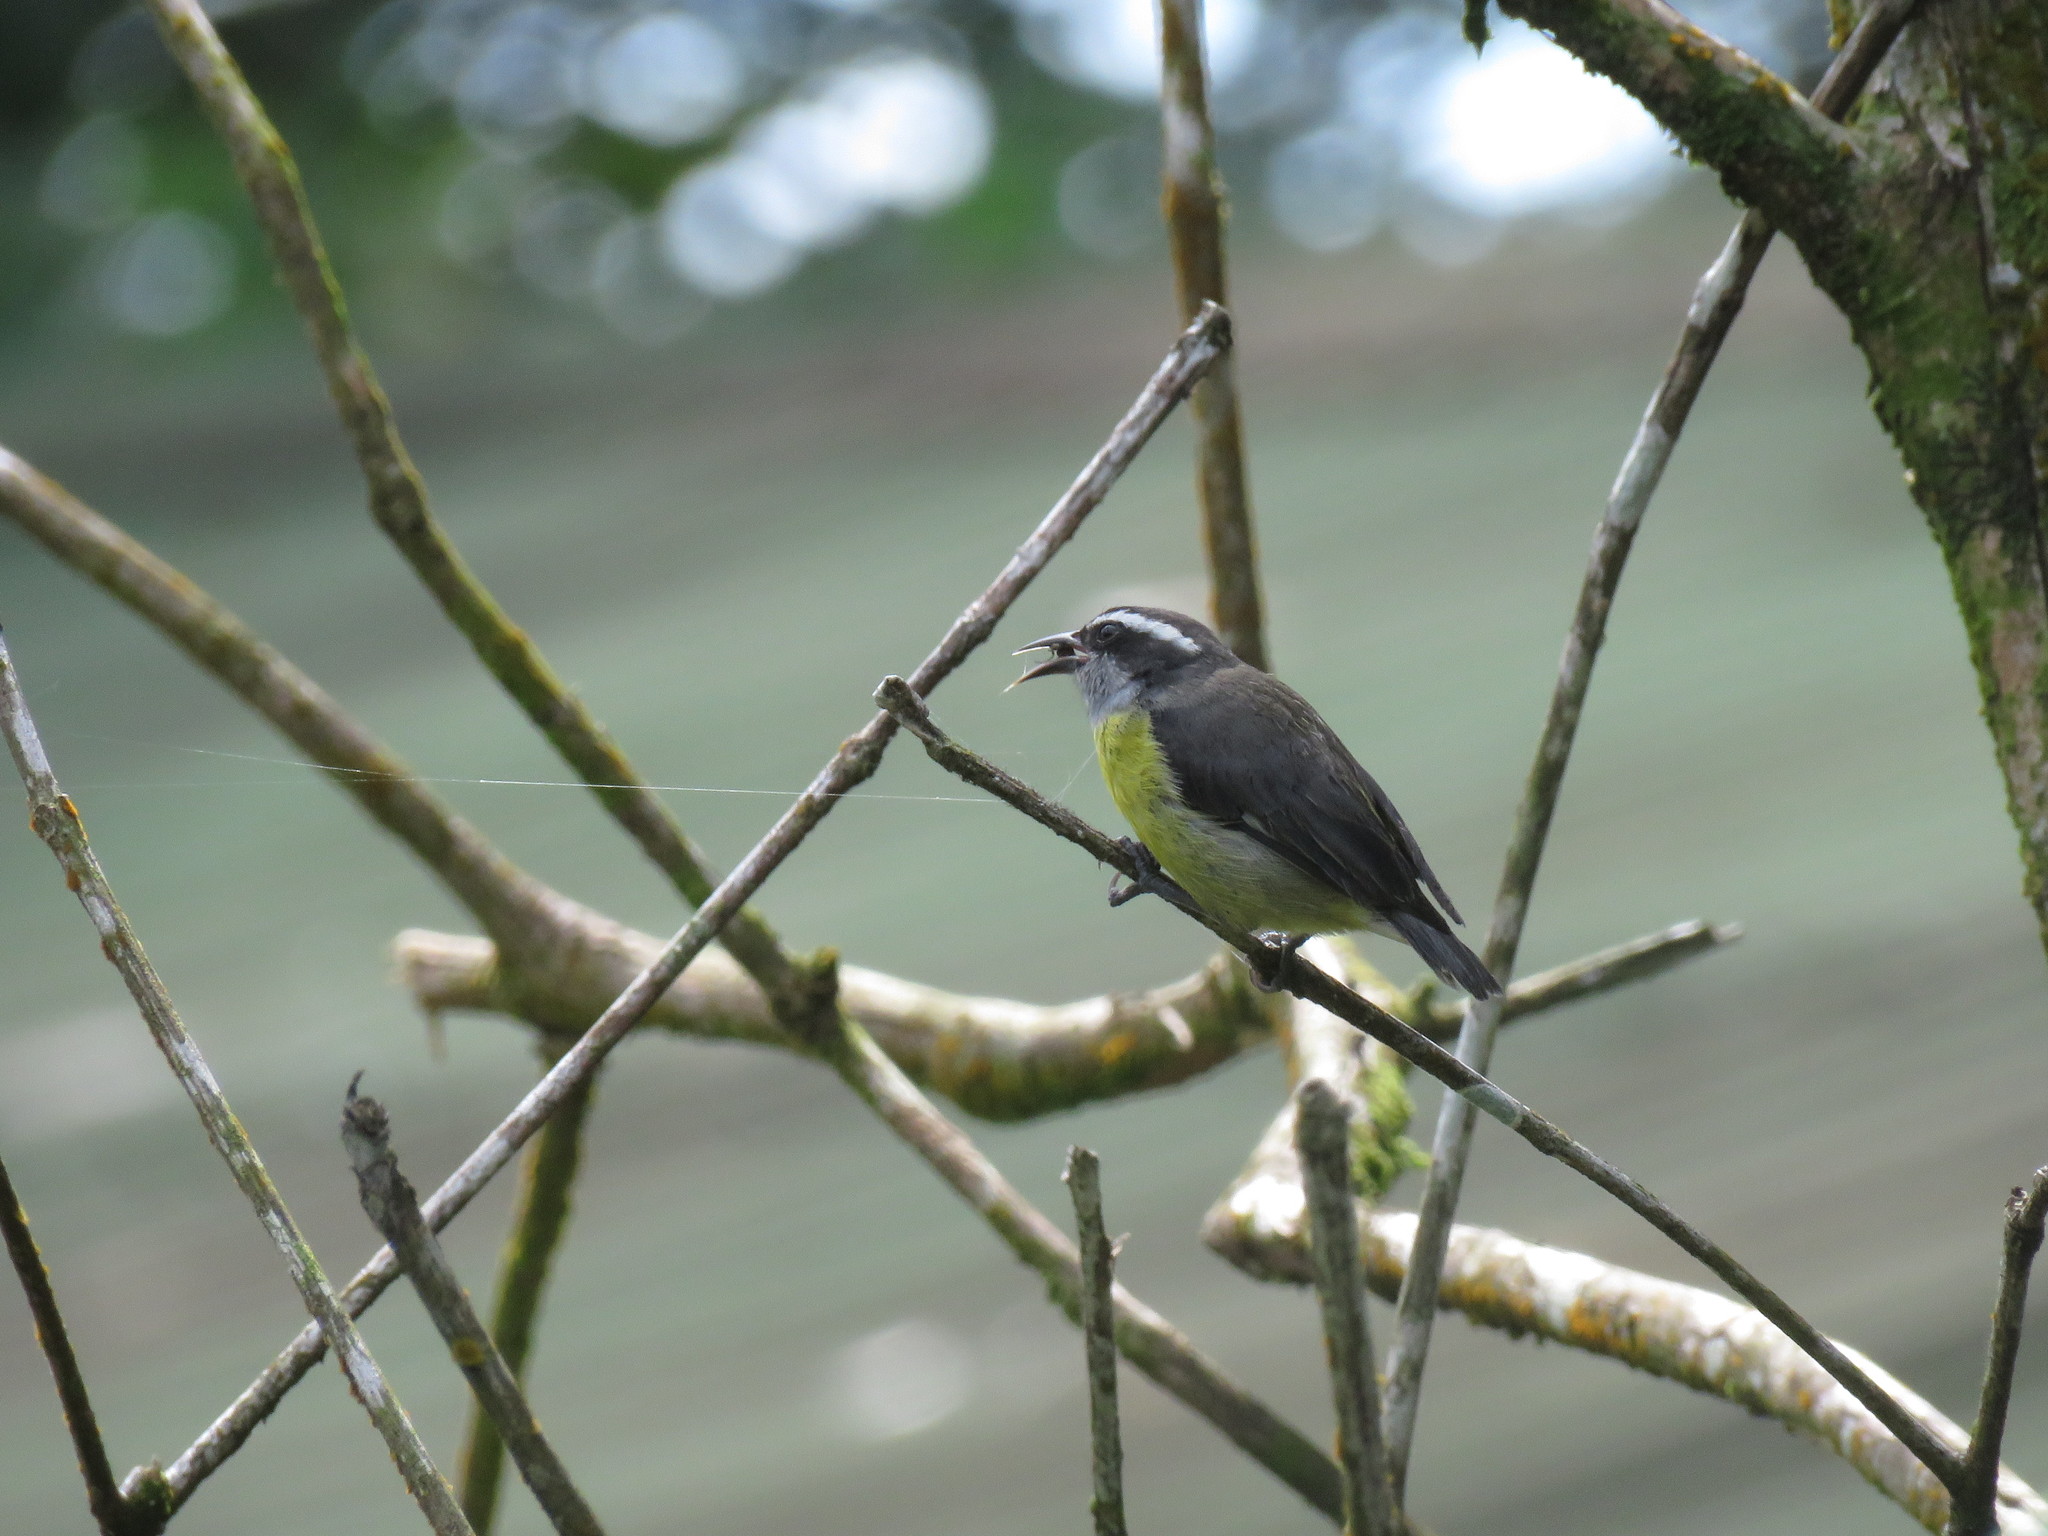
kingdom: Animalia
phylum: Chordata
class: Aves
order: Passeriformes
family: Thraupidae
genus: Coereba
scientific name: Coereba flaveola
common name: Bananaquit
